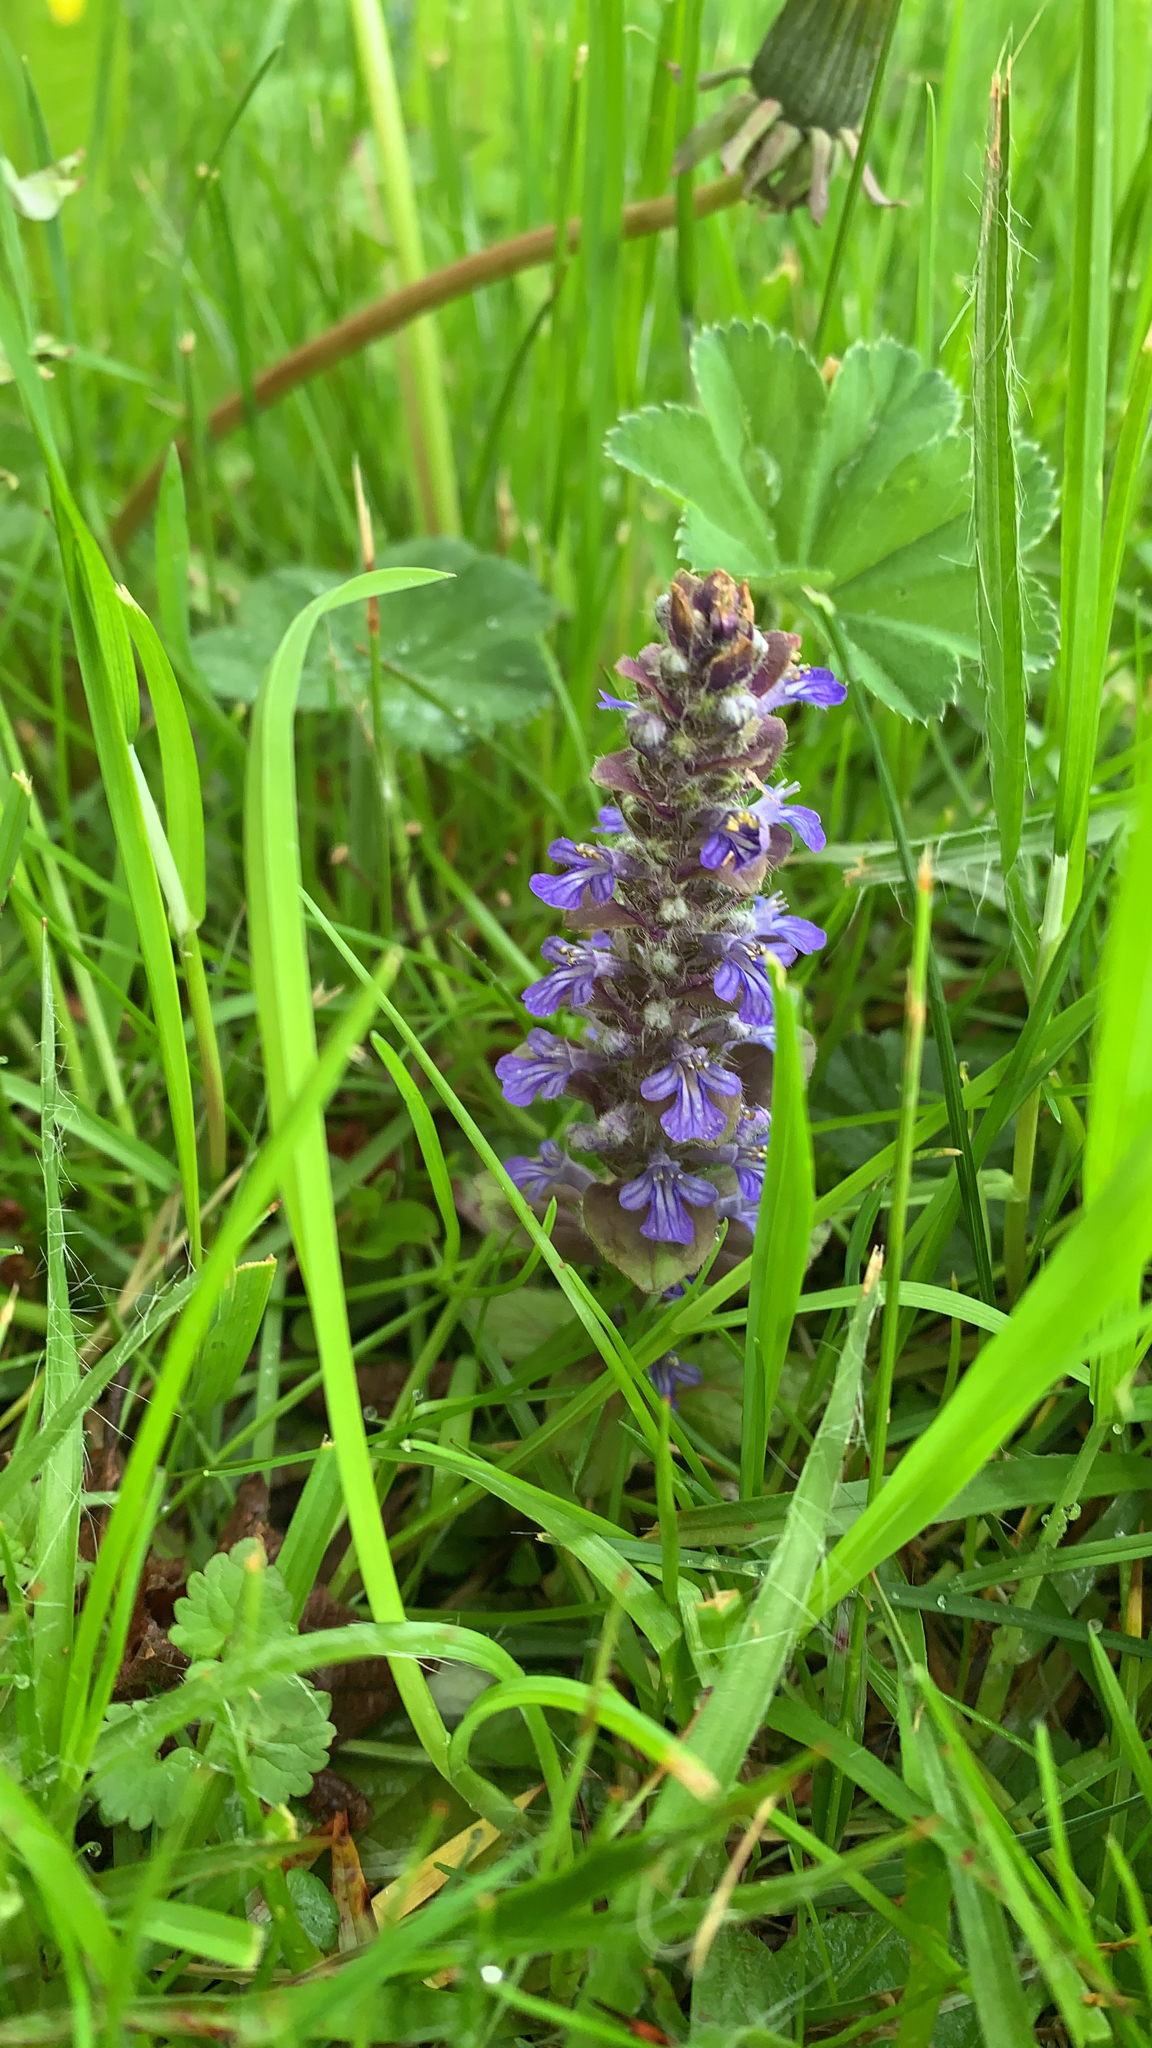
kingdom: Plantae
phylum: Tracheophyta
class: Magnoliopsida
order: Lamiales
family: Lamiaceae
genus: Ajuga
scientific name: Ajuga reptans
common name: Bugle
